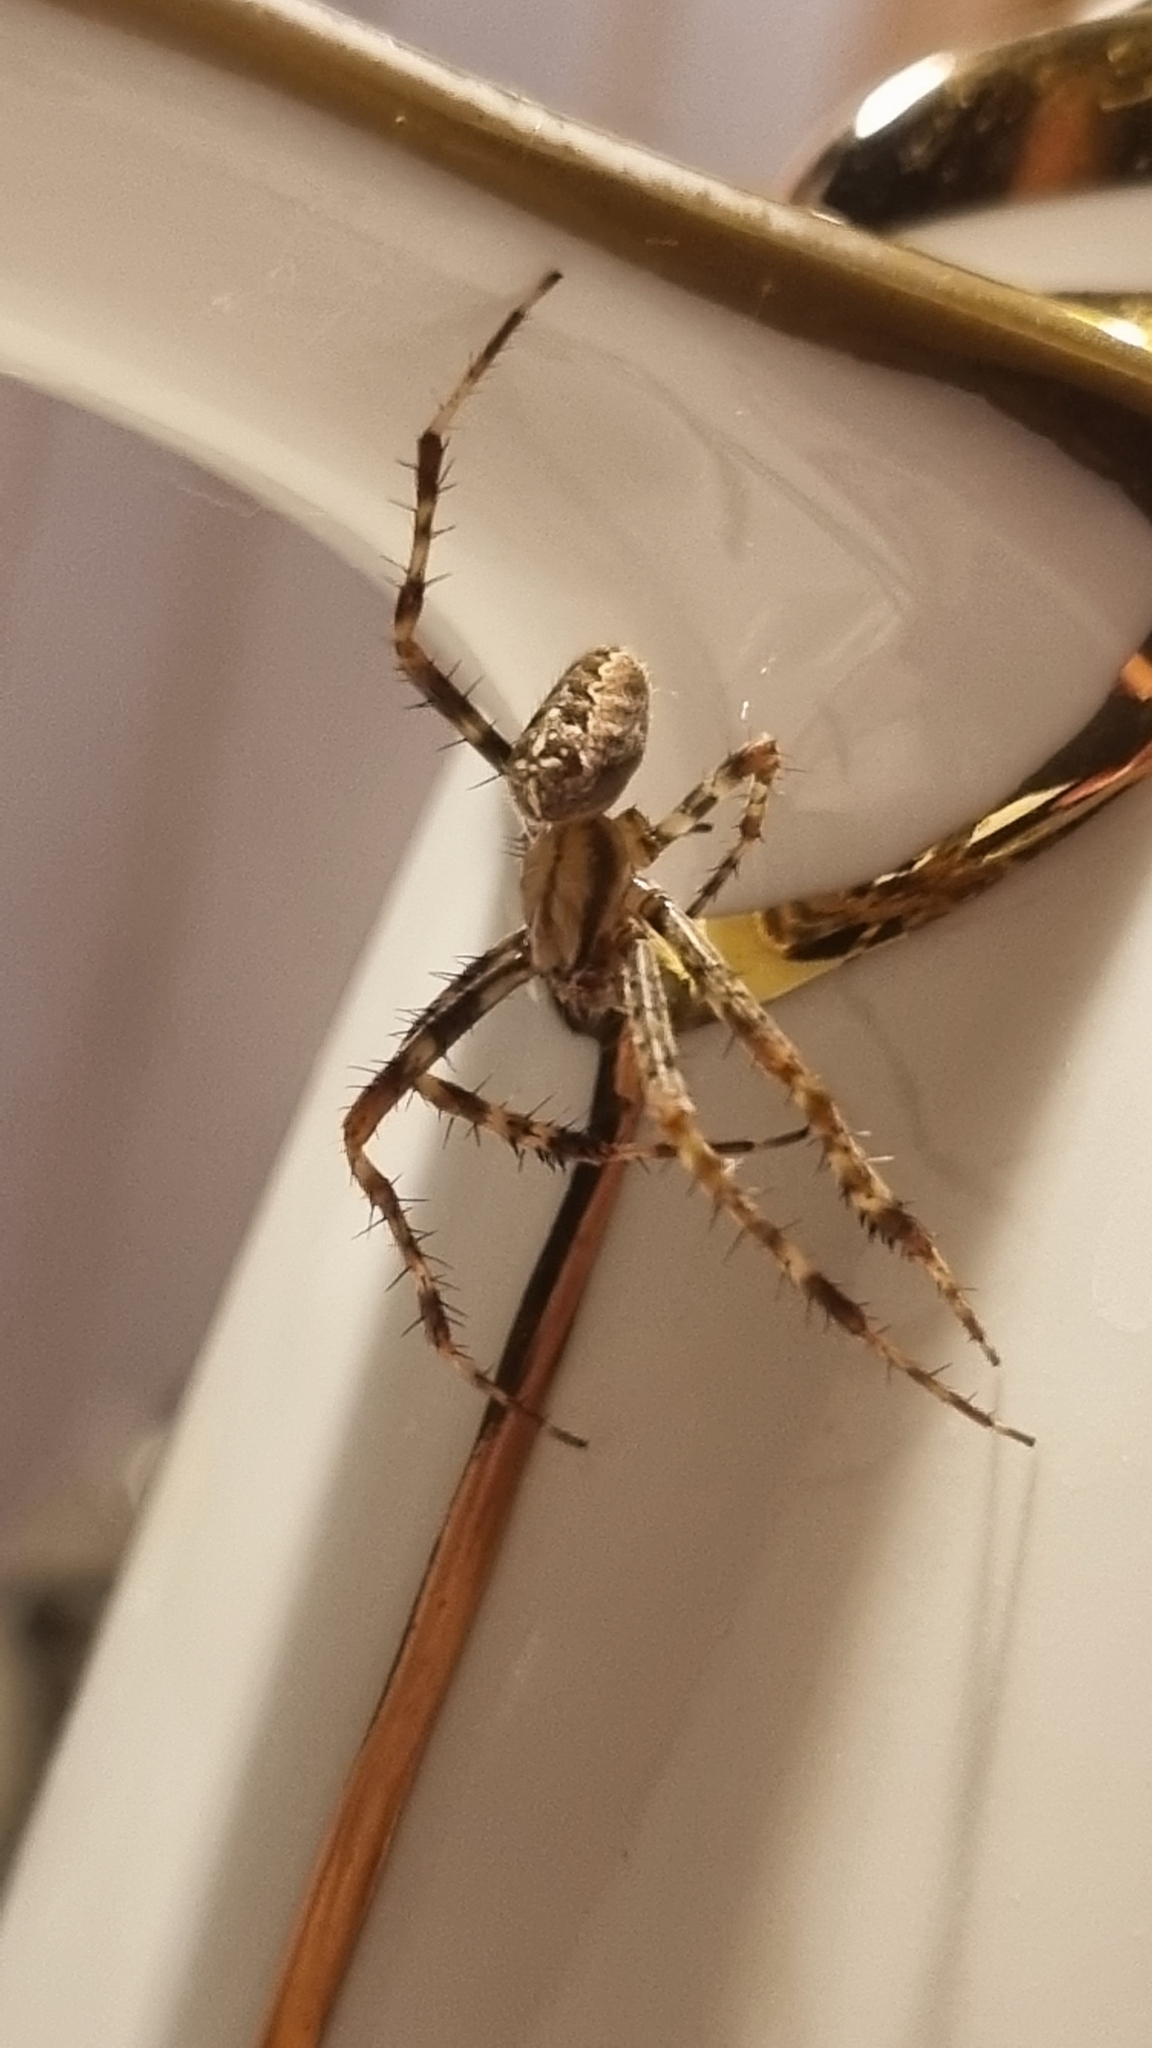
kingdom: Animalia
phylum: Arthropoda
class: Arachnida
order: Araneae
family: Araneidae
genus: Araneus
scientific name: Araneus diadematus
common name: Cross orbweaver
